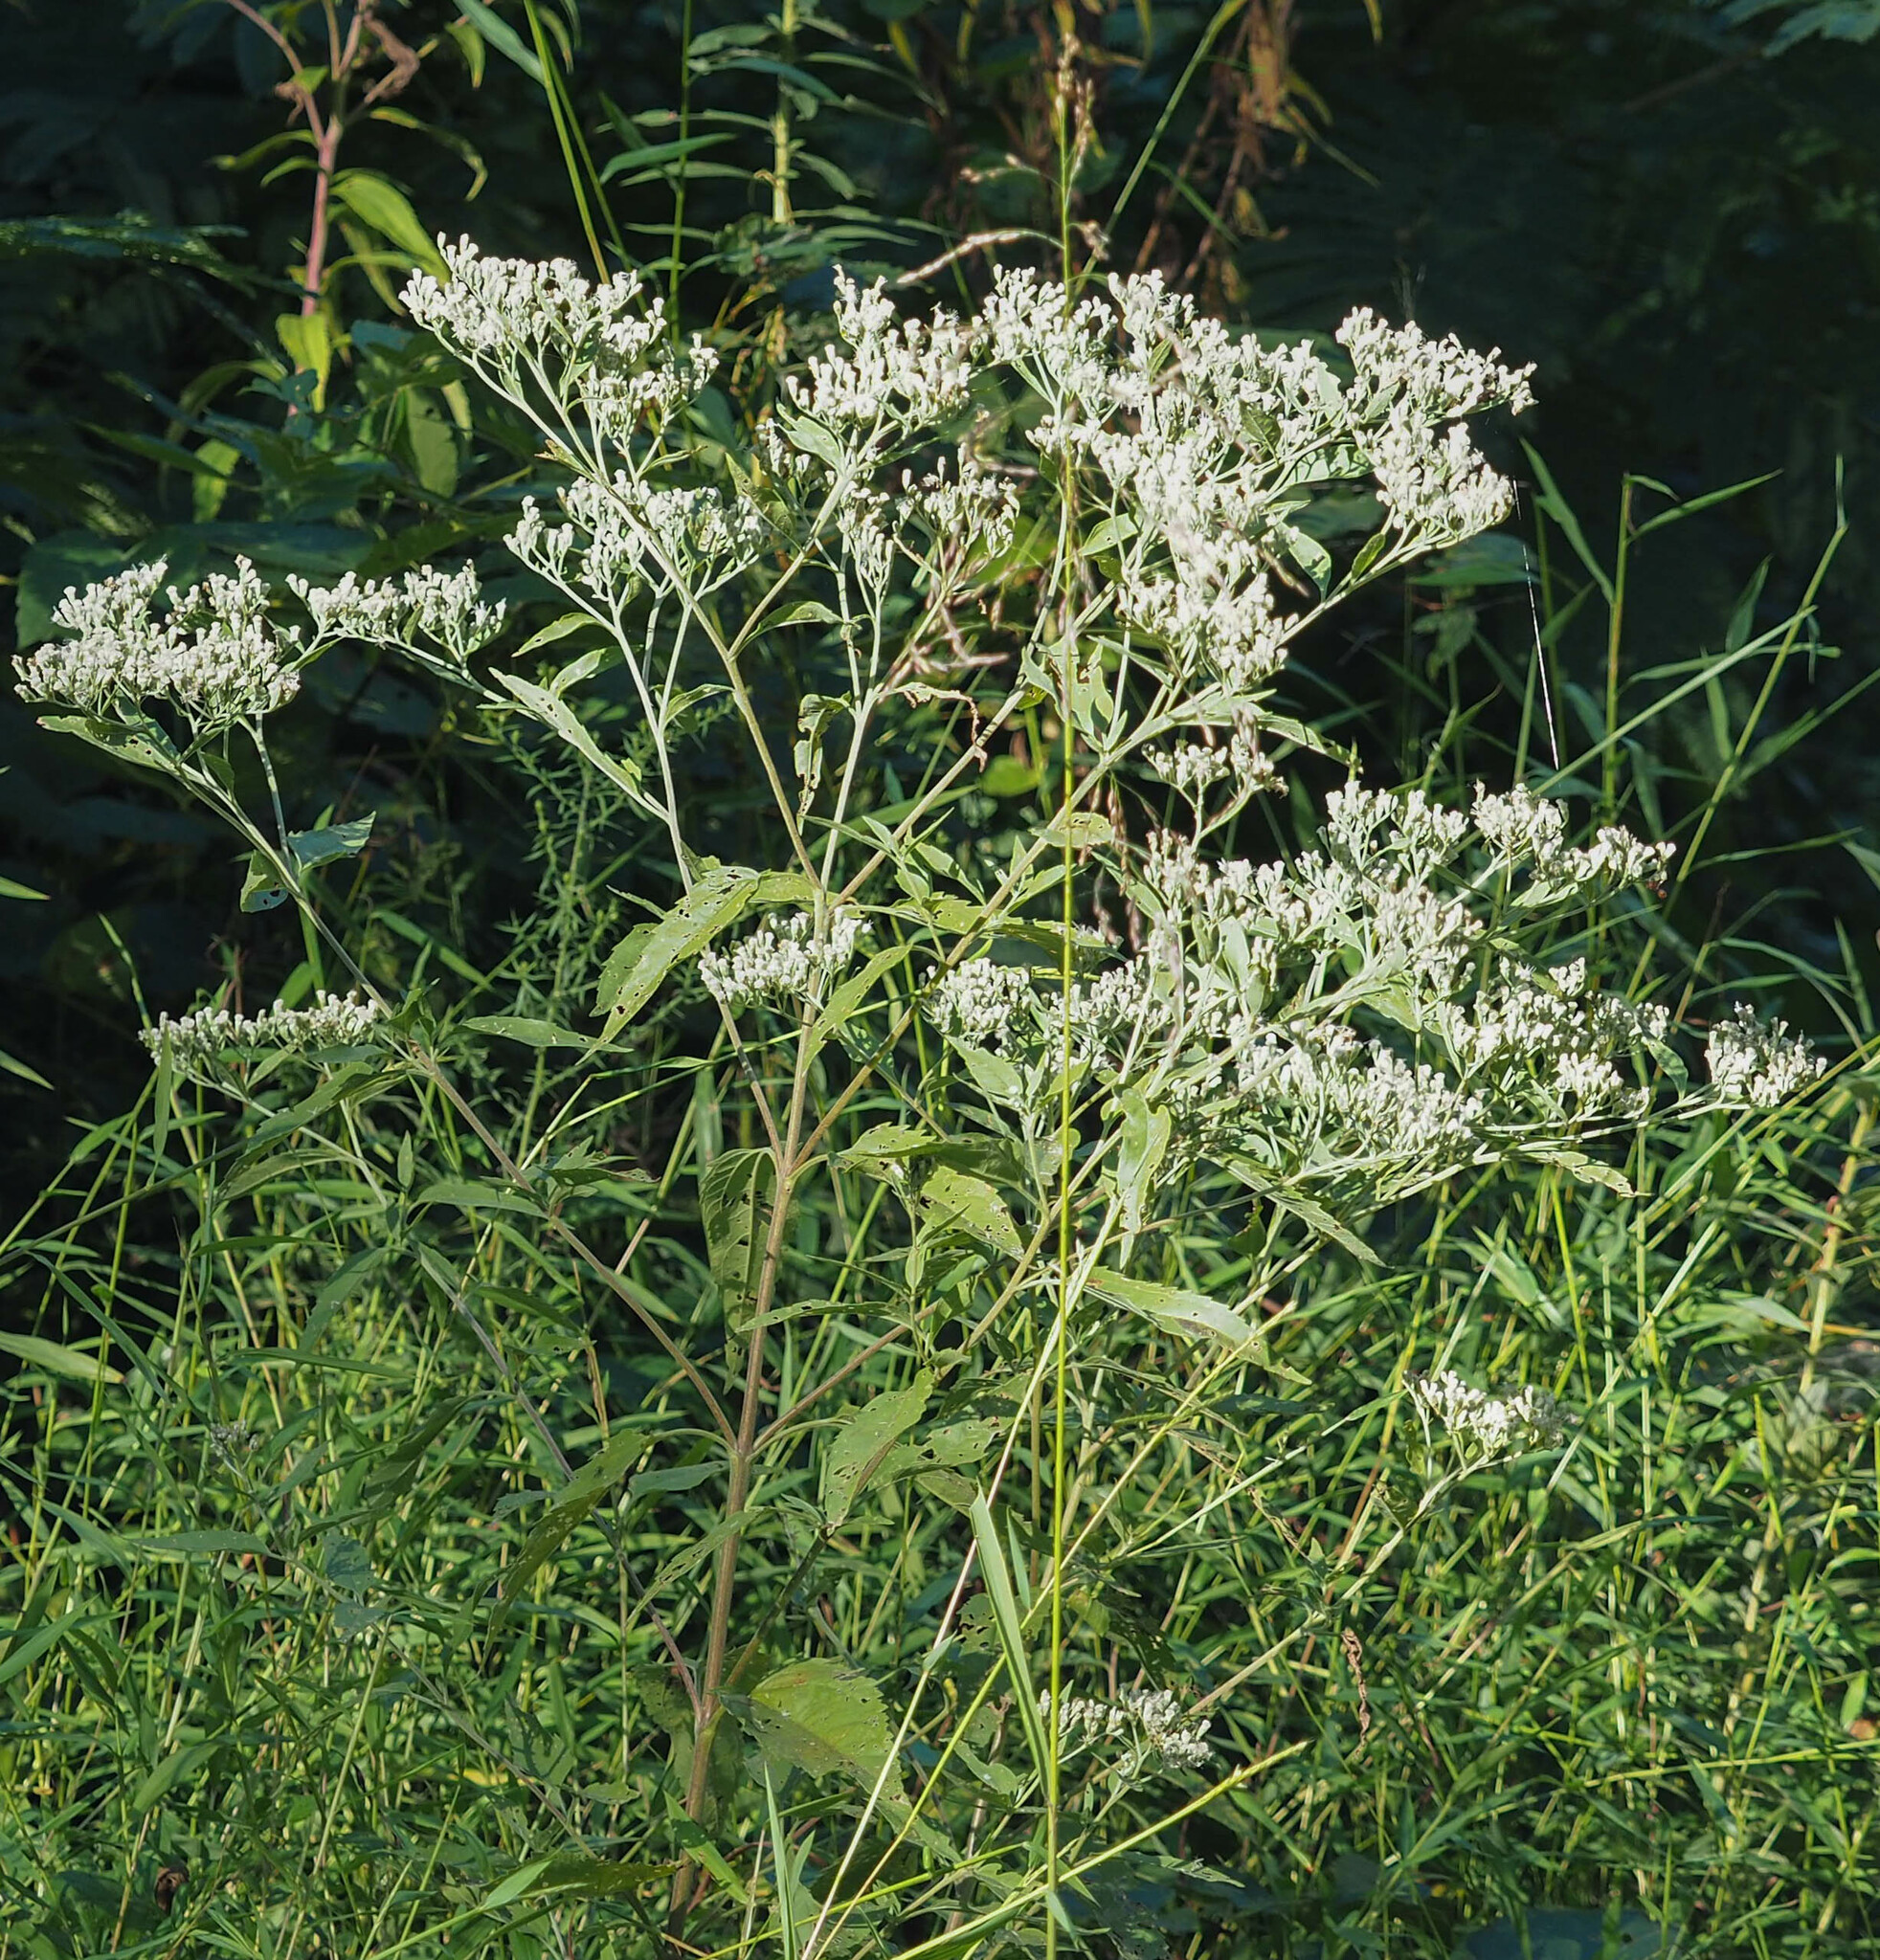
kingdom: Plantae
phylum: Tracheophyta
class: Magnoliopsida
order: Asterales
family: Asteraceae
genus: Eupatorium
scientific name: Eupatorium serotinum
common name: Late boneset
